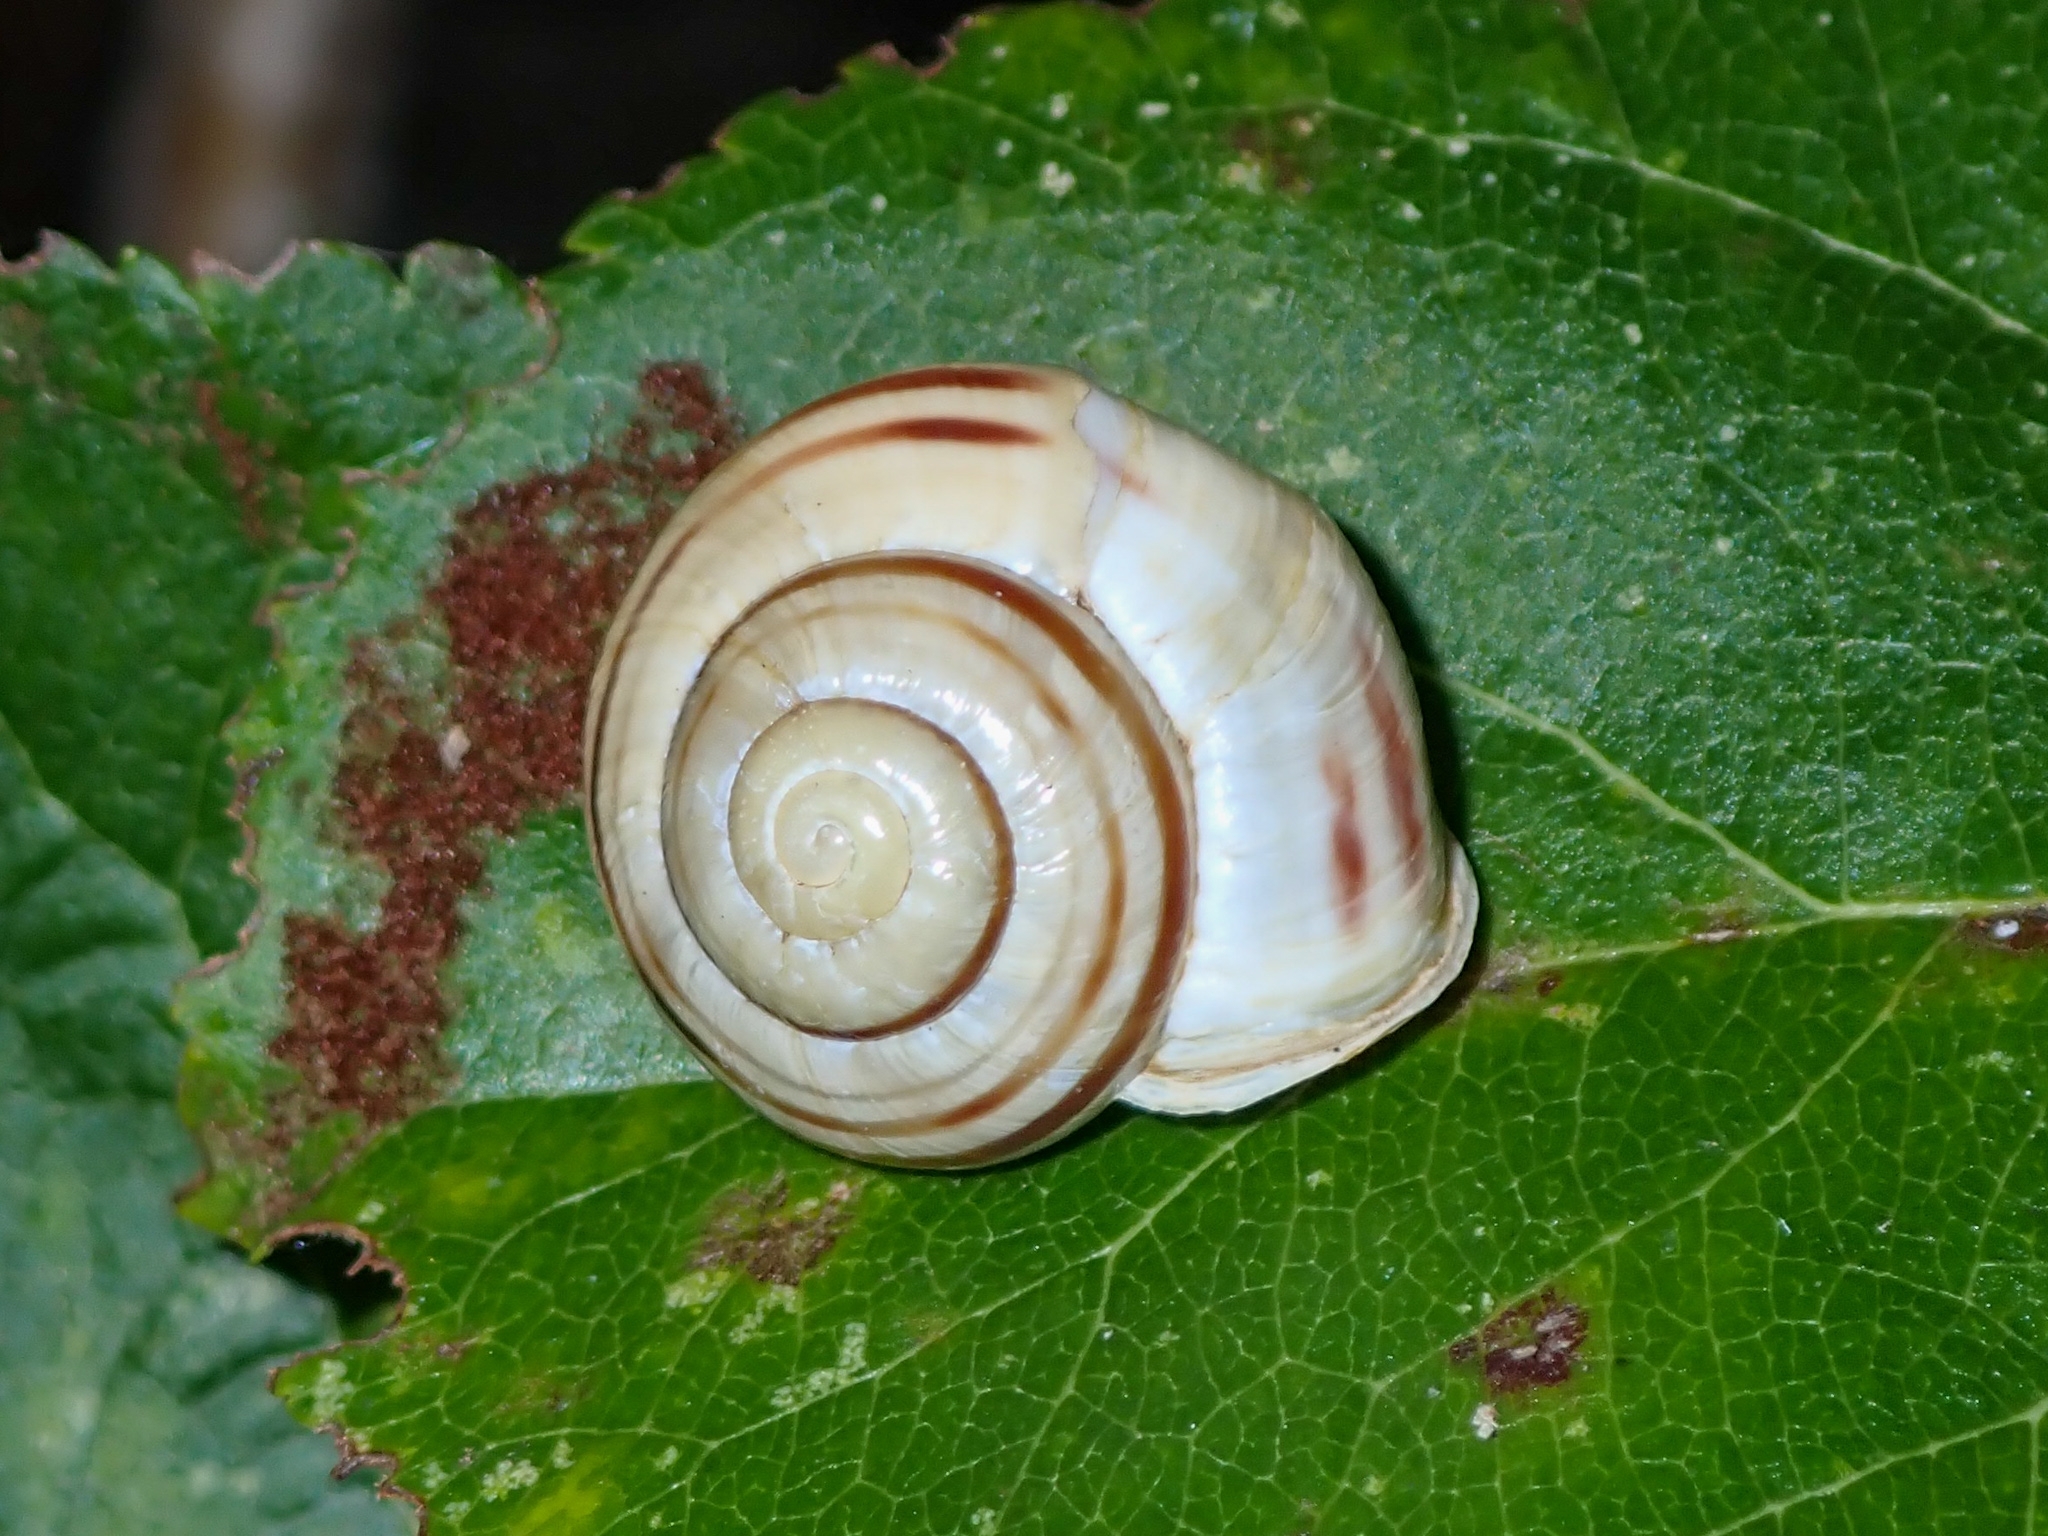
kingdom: Animalia
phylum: Mollusca
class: Gastropoda
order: Stylommatophora
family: Helicidae
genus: Cepaea
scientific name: Cepaea hortensis
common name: White-lip gardensnail
